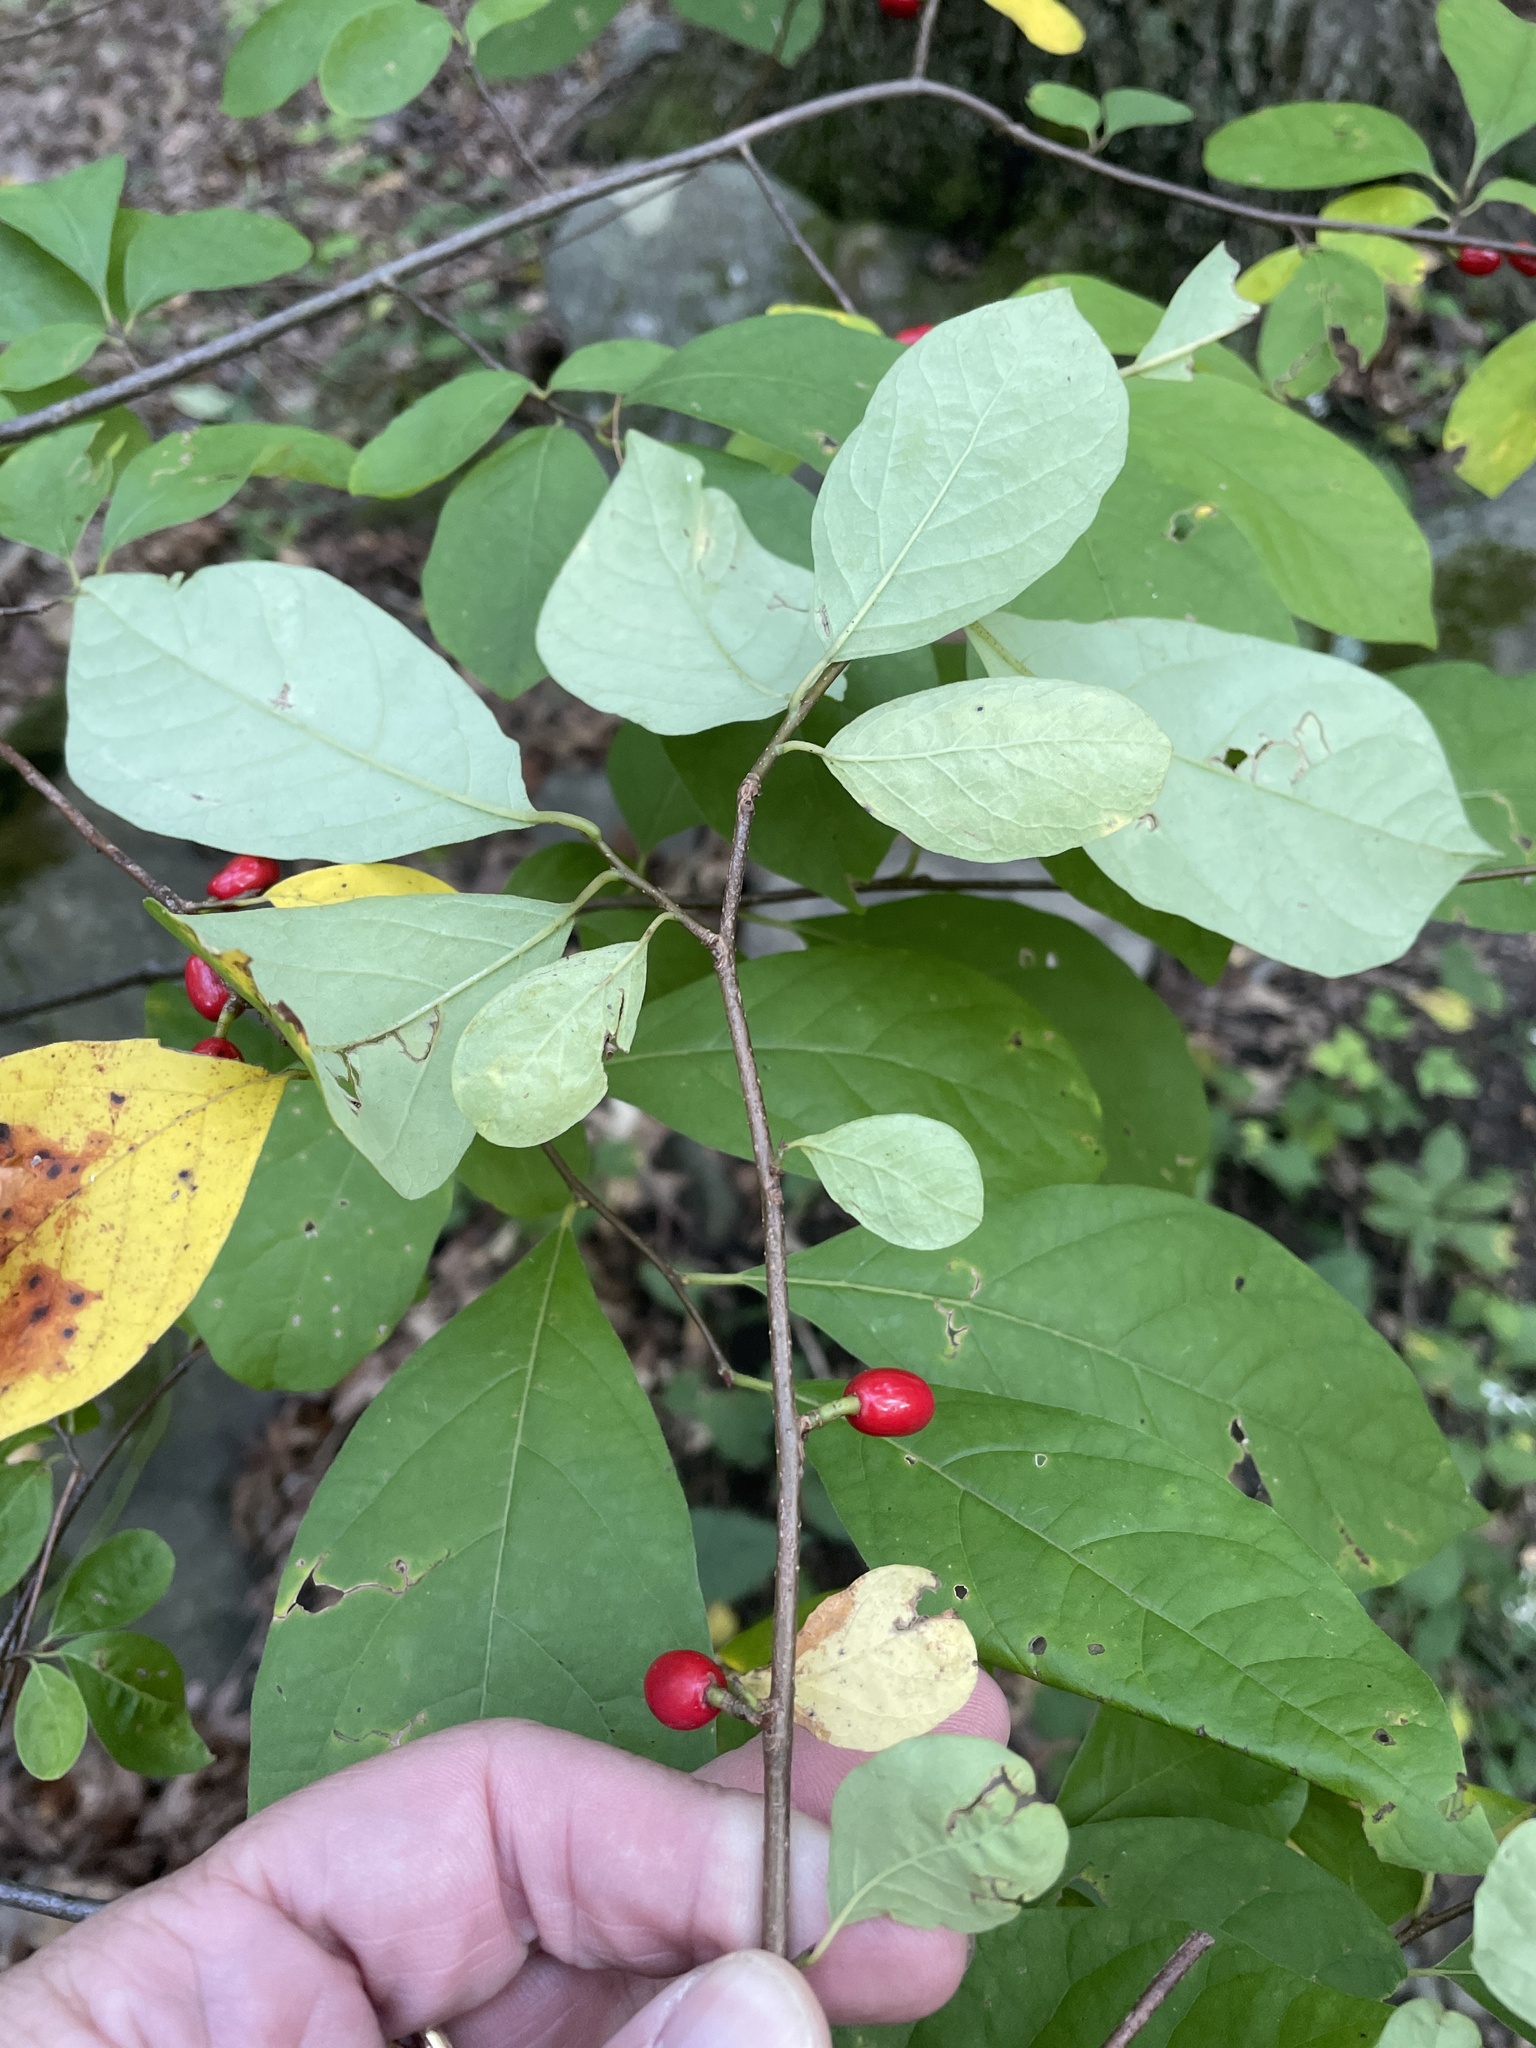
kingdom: Plantae
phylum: Tracheophyta
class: Magnoliopsida
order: Laurales
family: Lauraceae
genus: Lindera
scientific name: Lindera benzoin
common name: Spicebush
